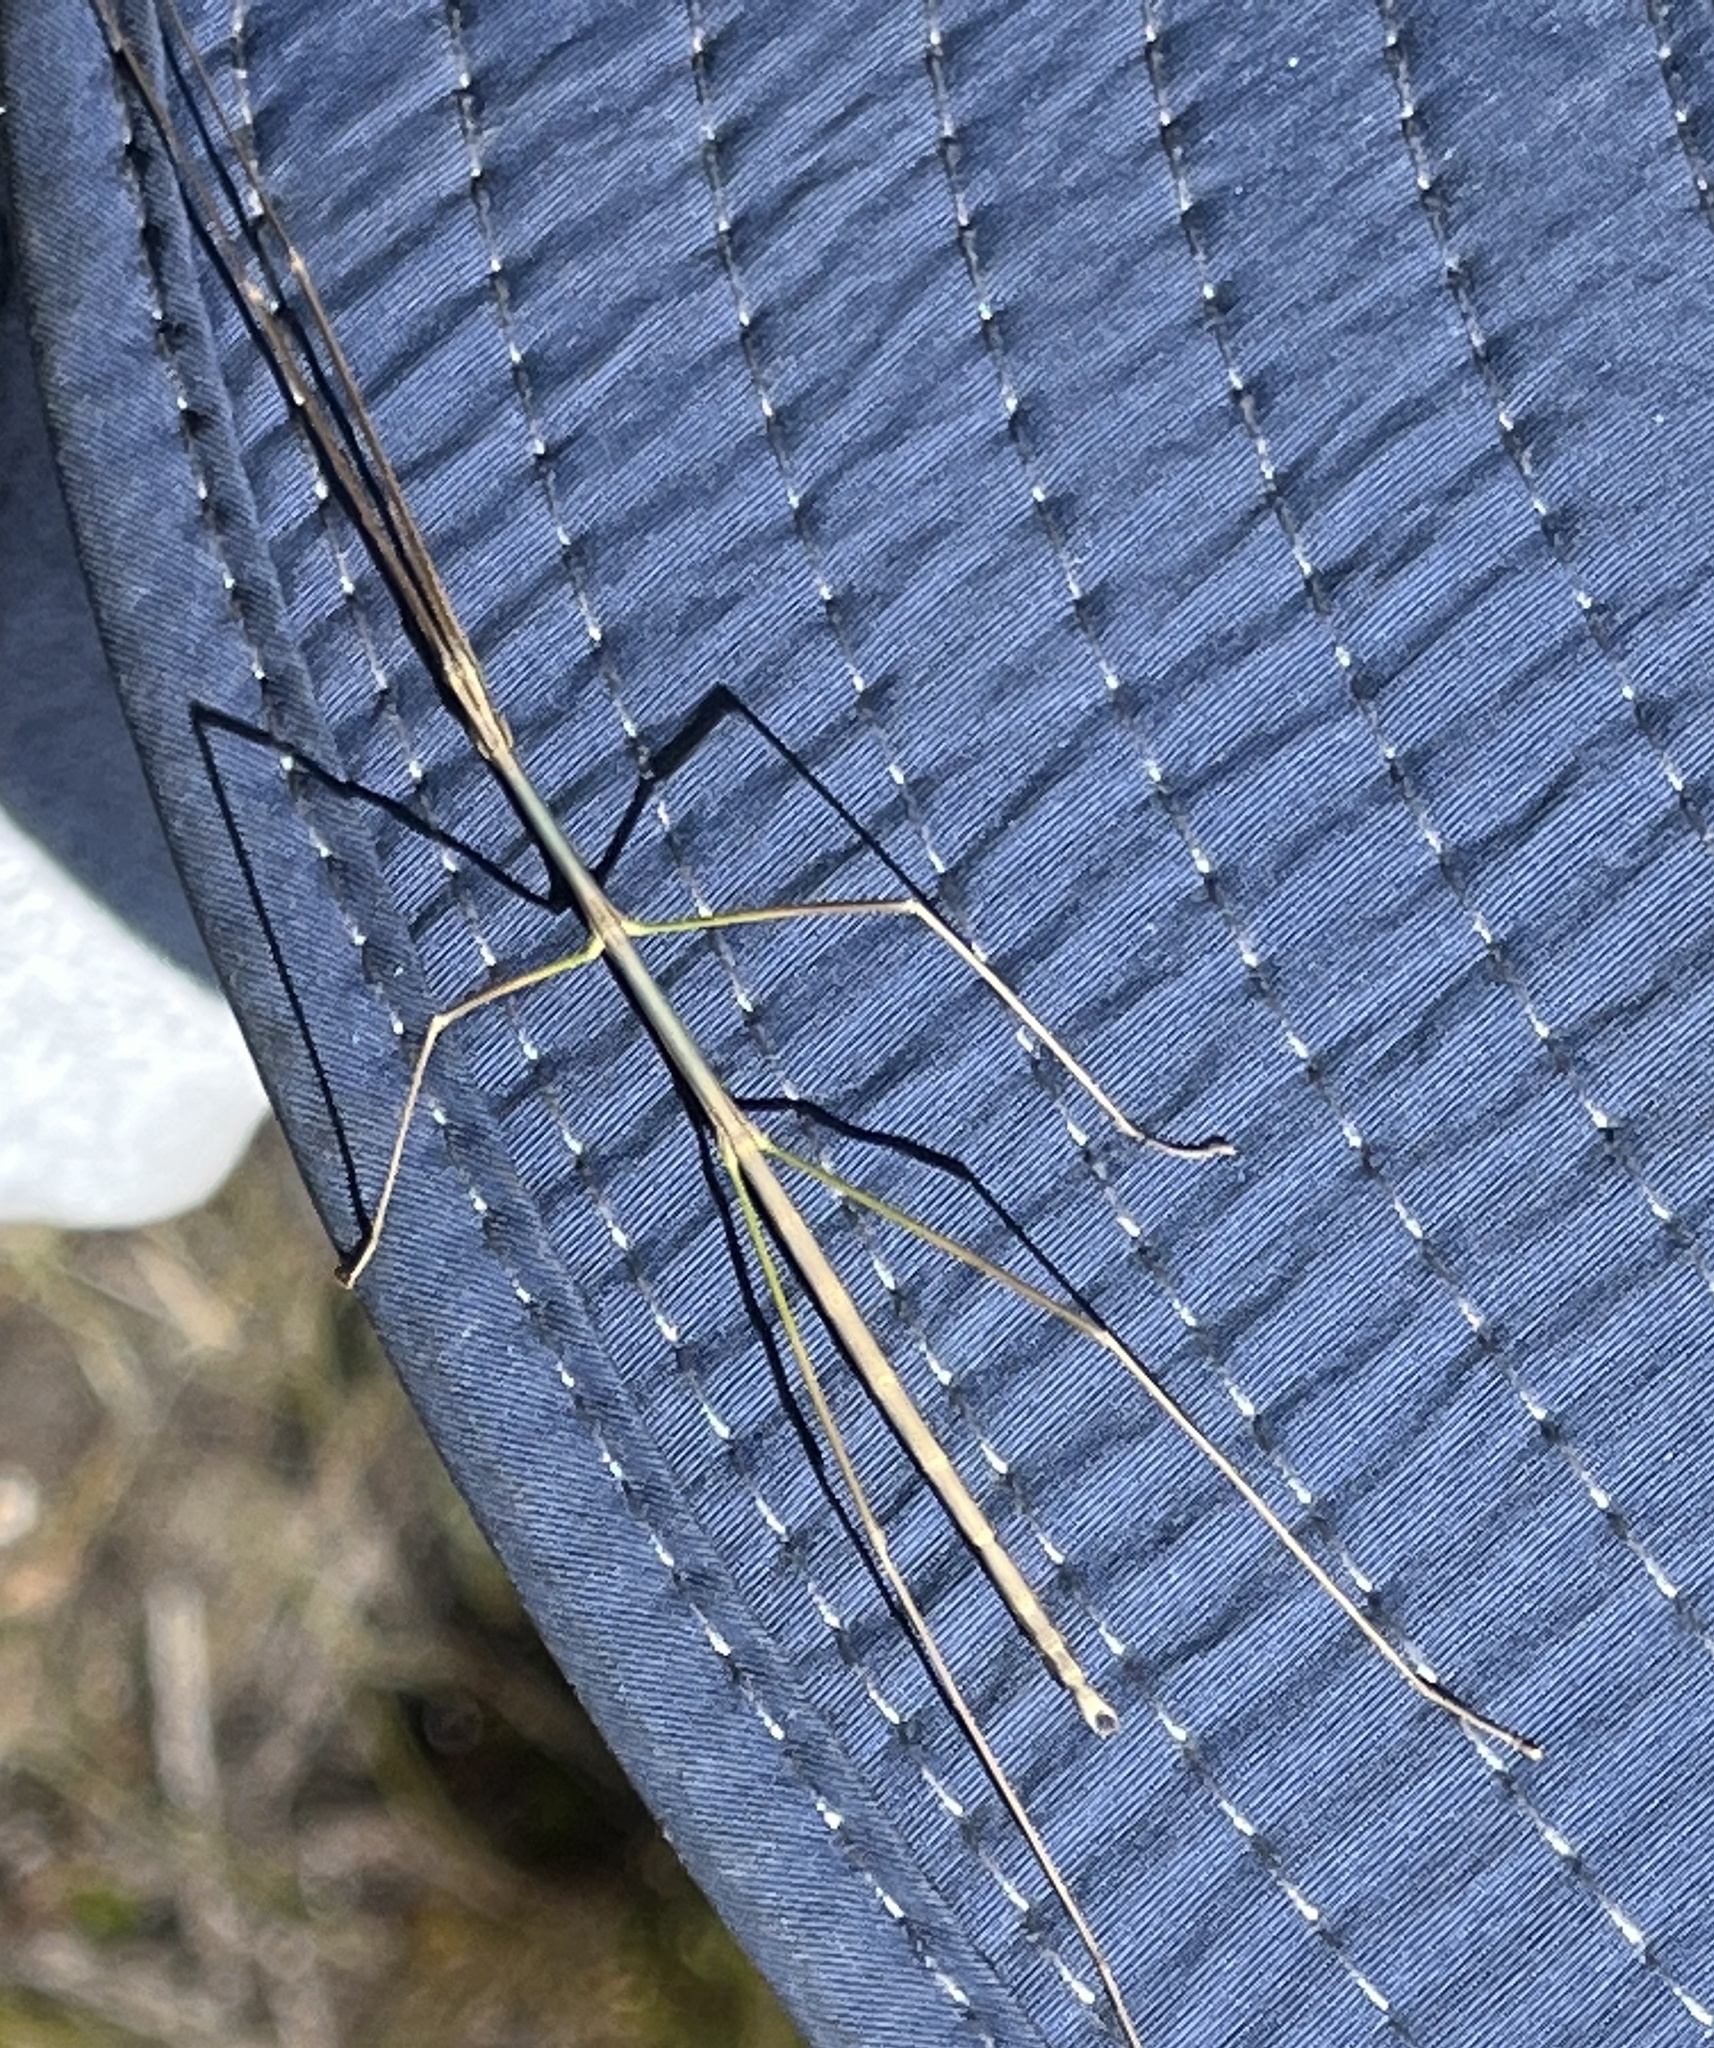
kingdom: Animalia
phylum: Arthropoda
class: Insecta
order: Phasmida
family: Bacillidae
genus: Phalces
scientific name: Phalces brevis
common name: Cape stick insect
